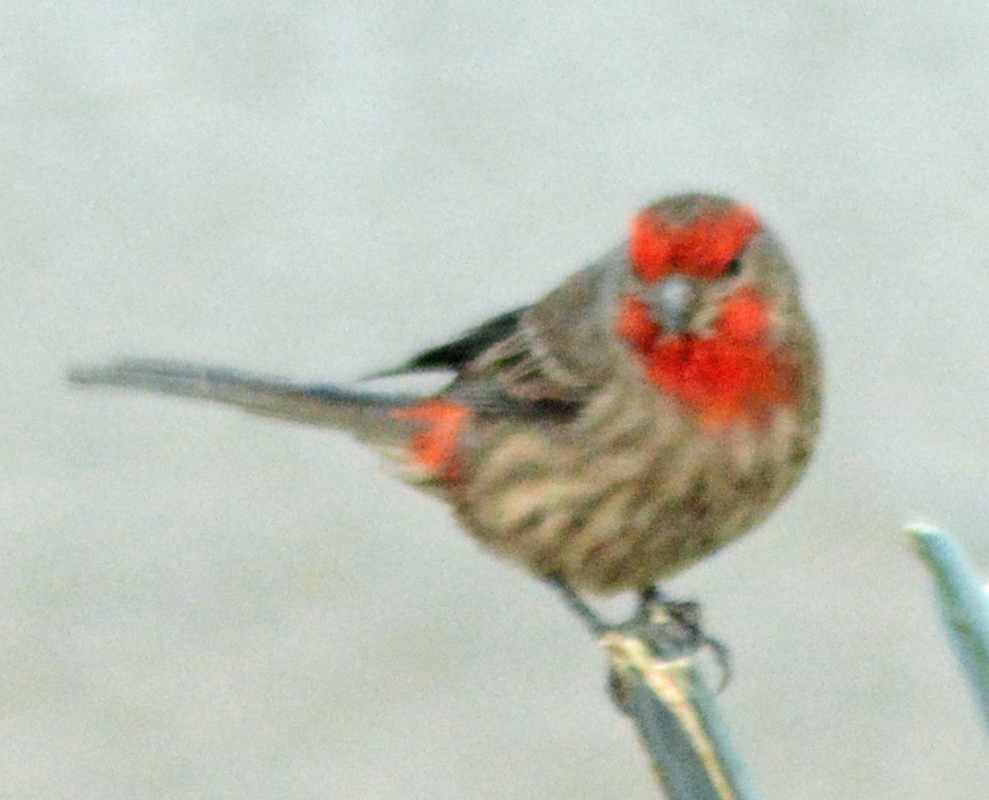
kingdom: Animalia
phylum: Chordata
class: Aves
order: Passeriformes
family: Fringillidae
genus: Haemorhous
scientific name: Haemorhous mexicanus
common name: House finch
